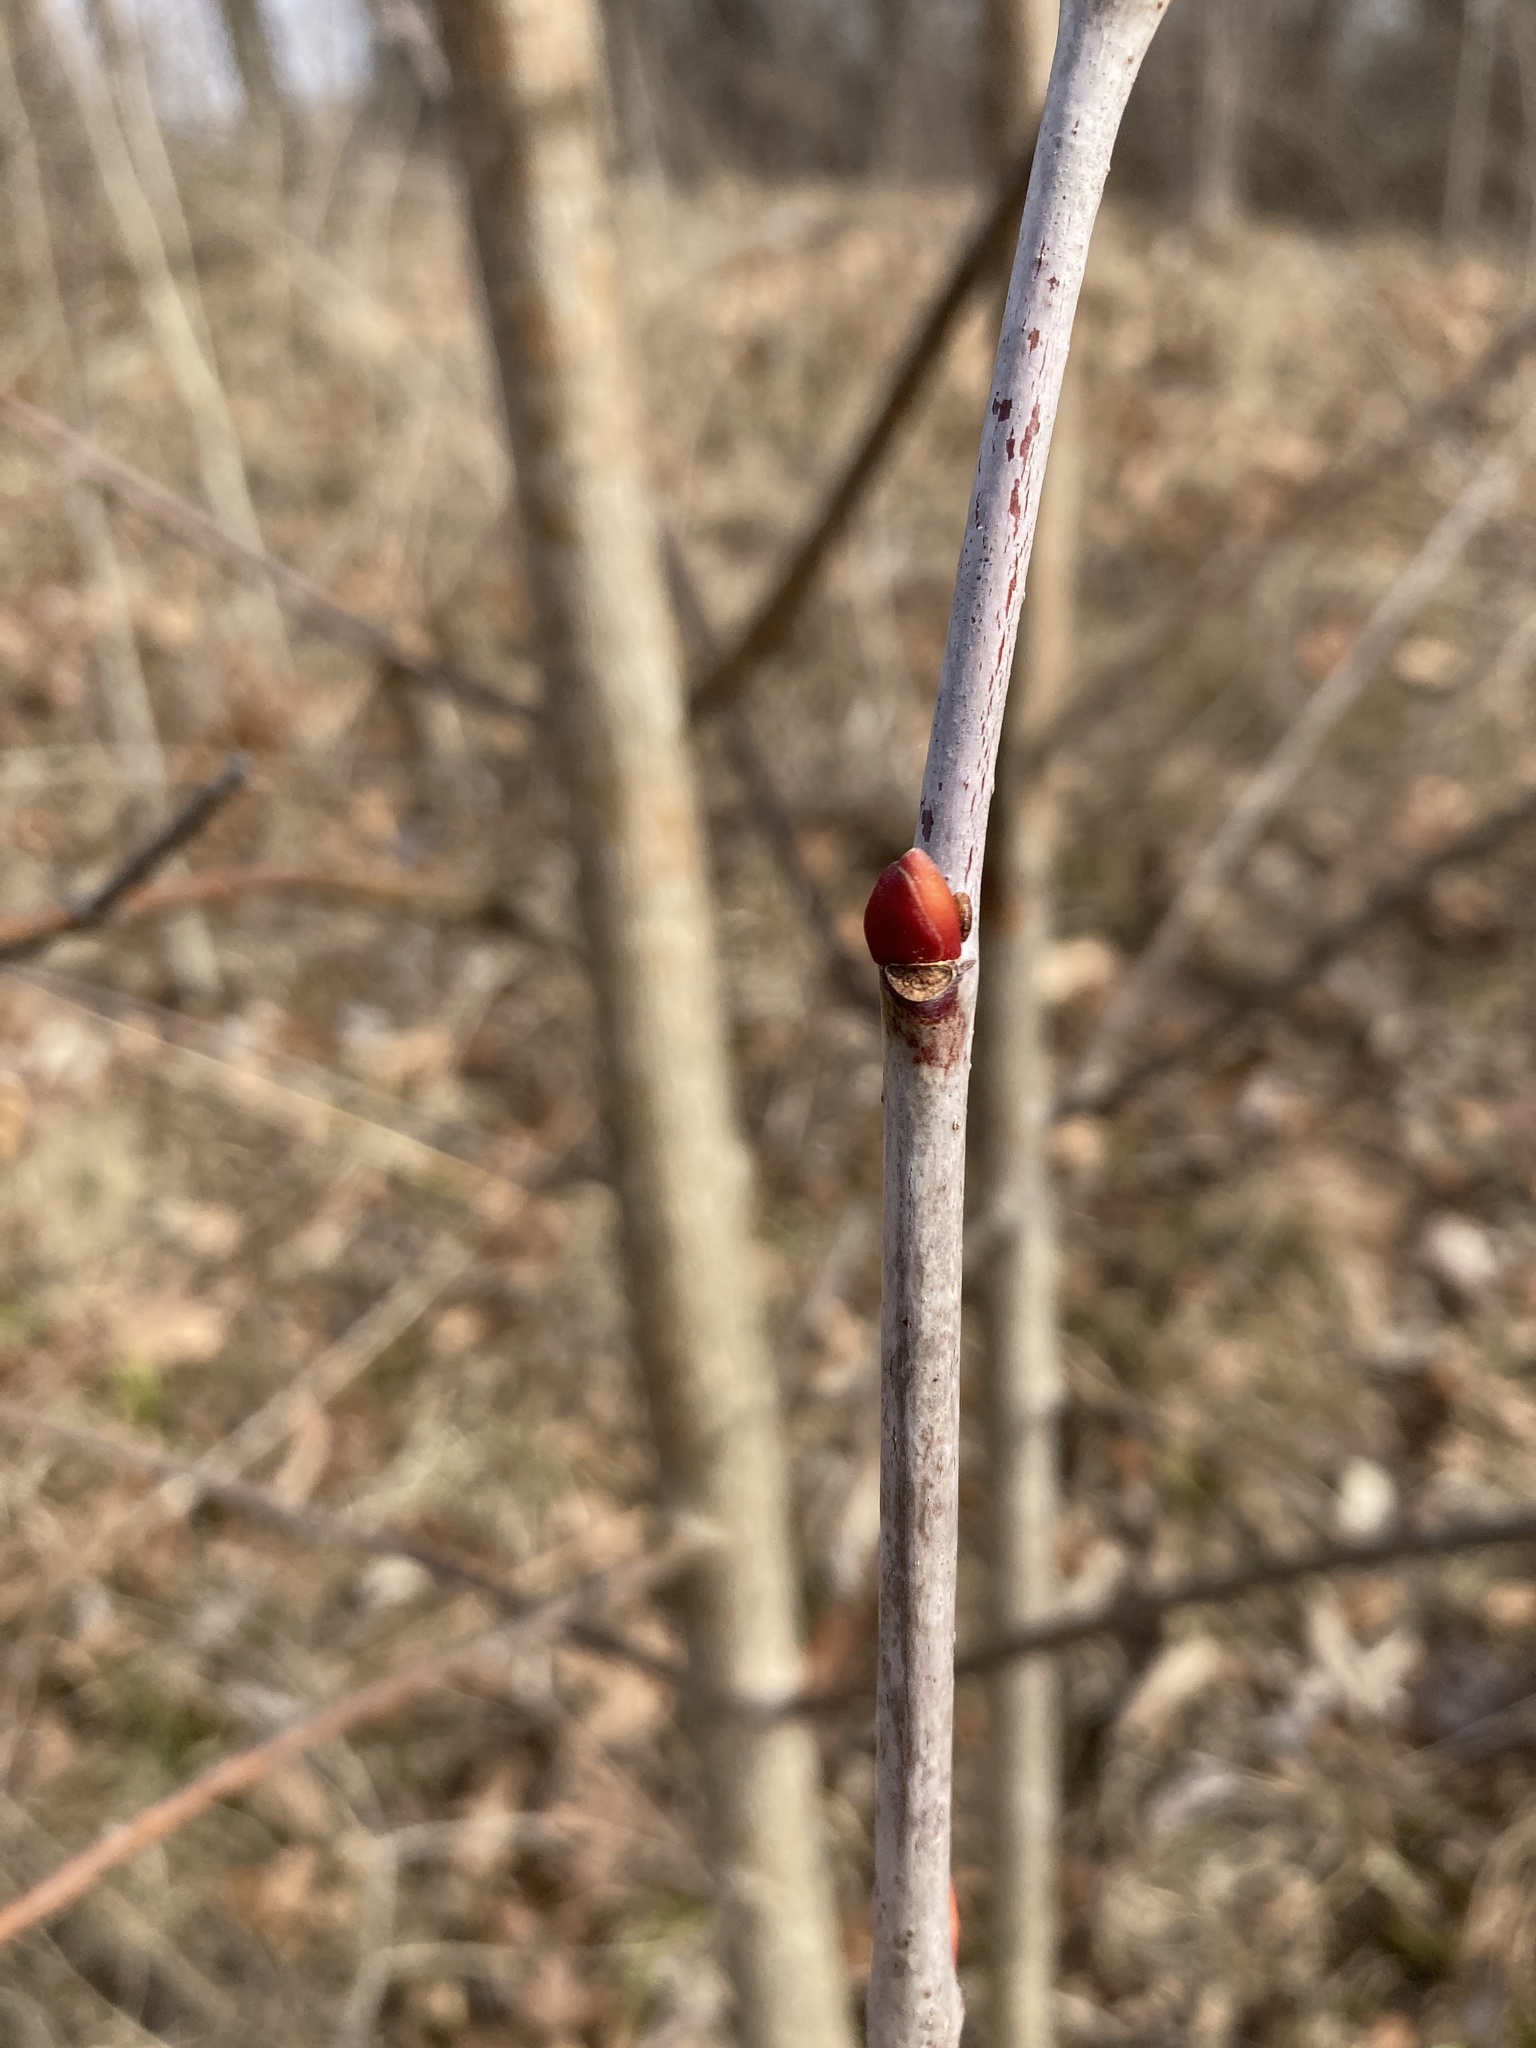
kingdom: Plantae
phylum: Tracheophyta
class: Magnoliopsida
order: Malvales
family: Malvaceae
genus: Tilia
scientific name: Tilia americana
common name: Basswood
